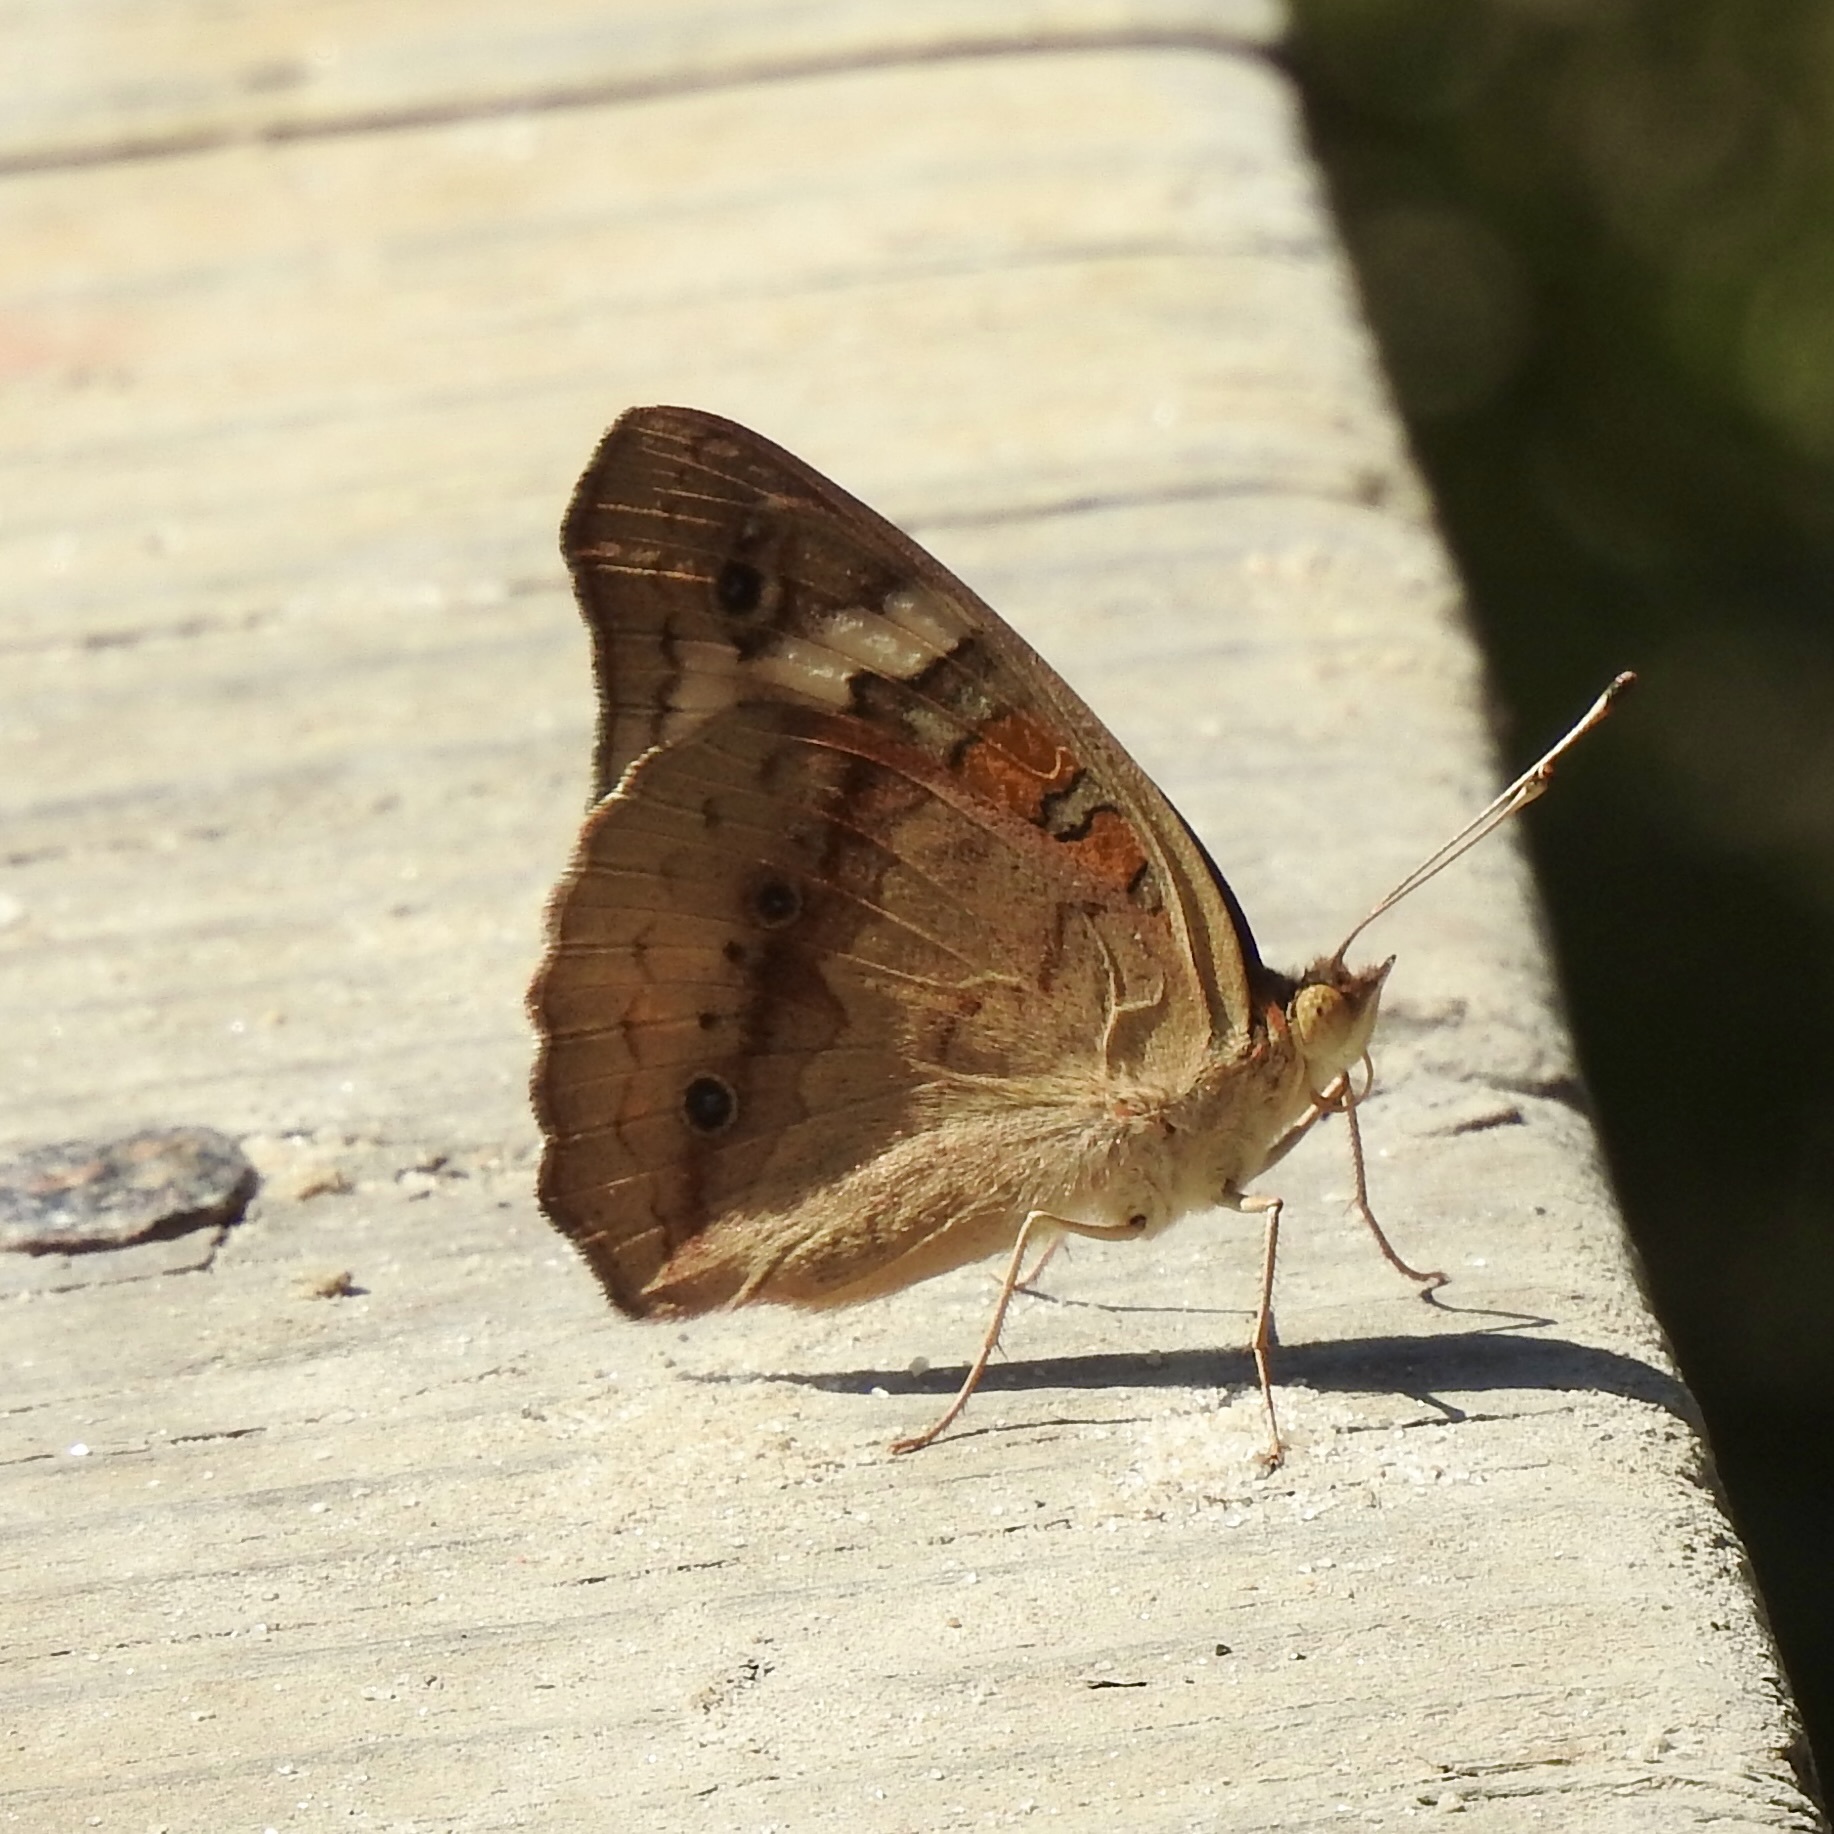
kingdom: Animalia
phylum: Arthropoda
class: Insecta
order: Lepidoptera
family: Nymphalidae
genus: Junonia
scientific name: Junonia coenia
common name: Common buckeye
